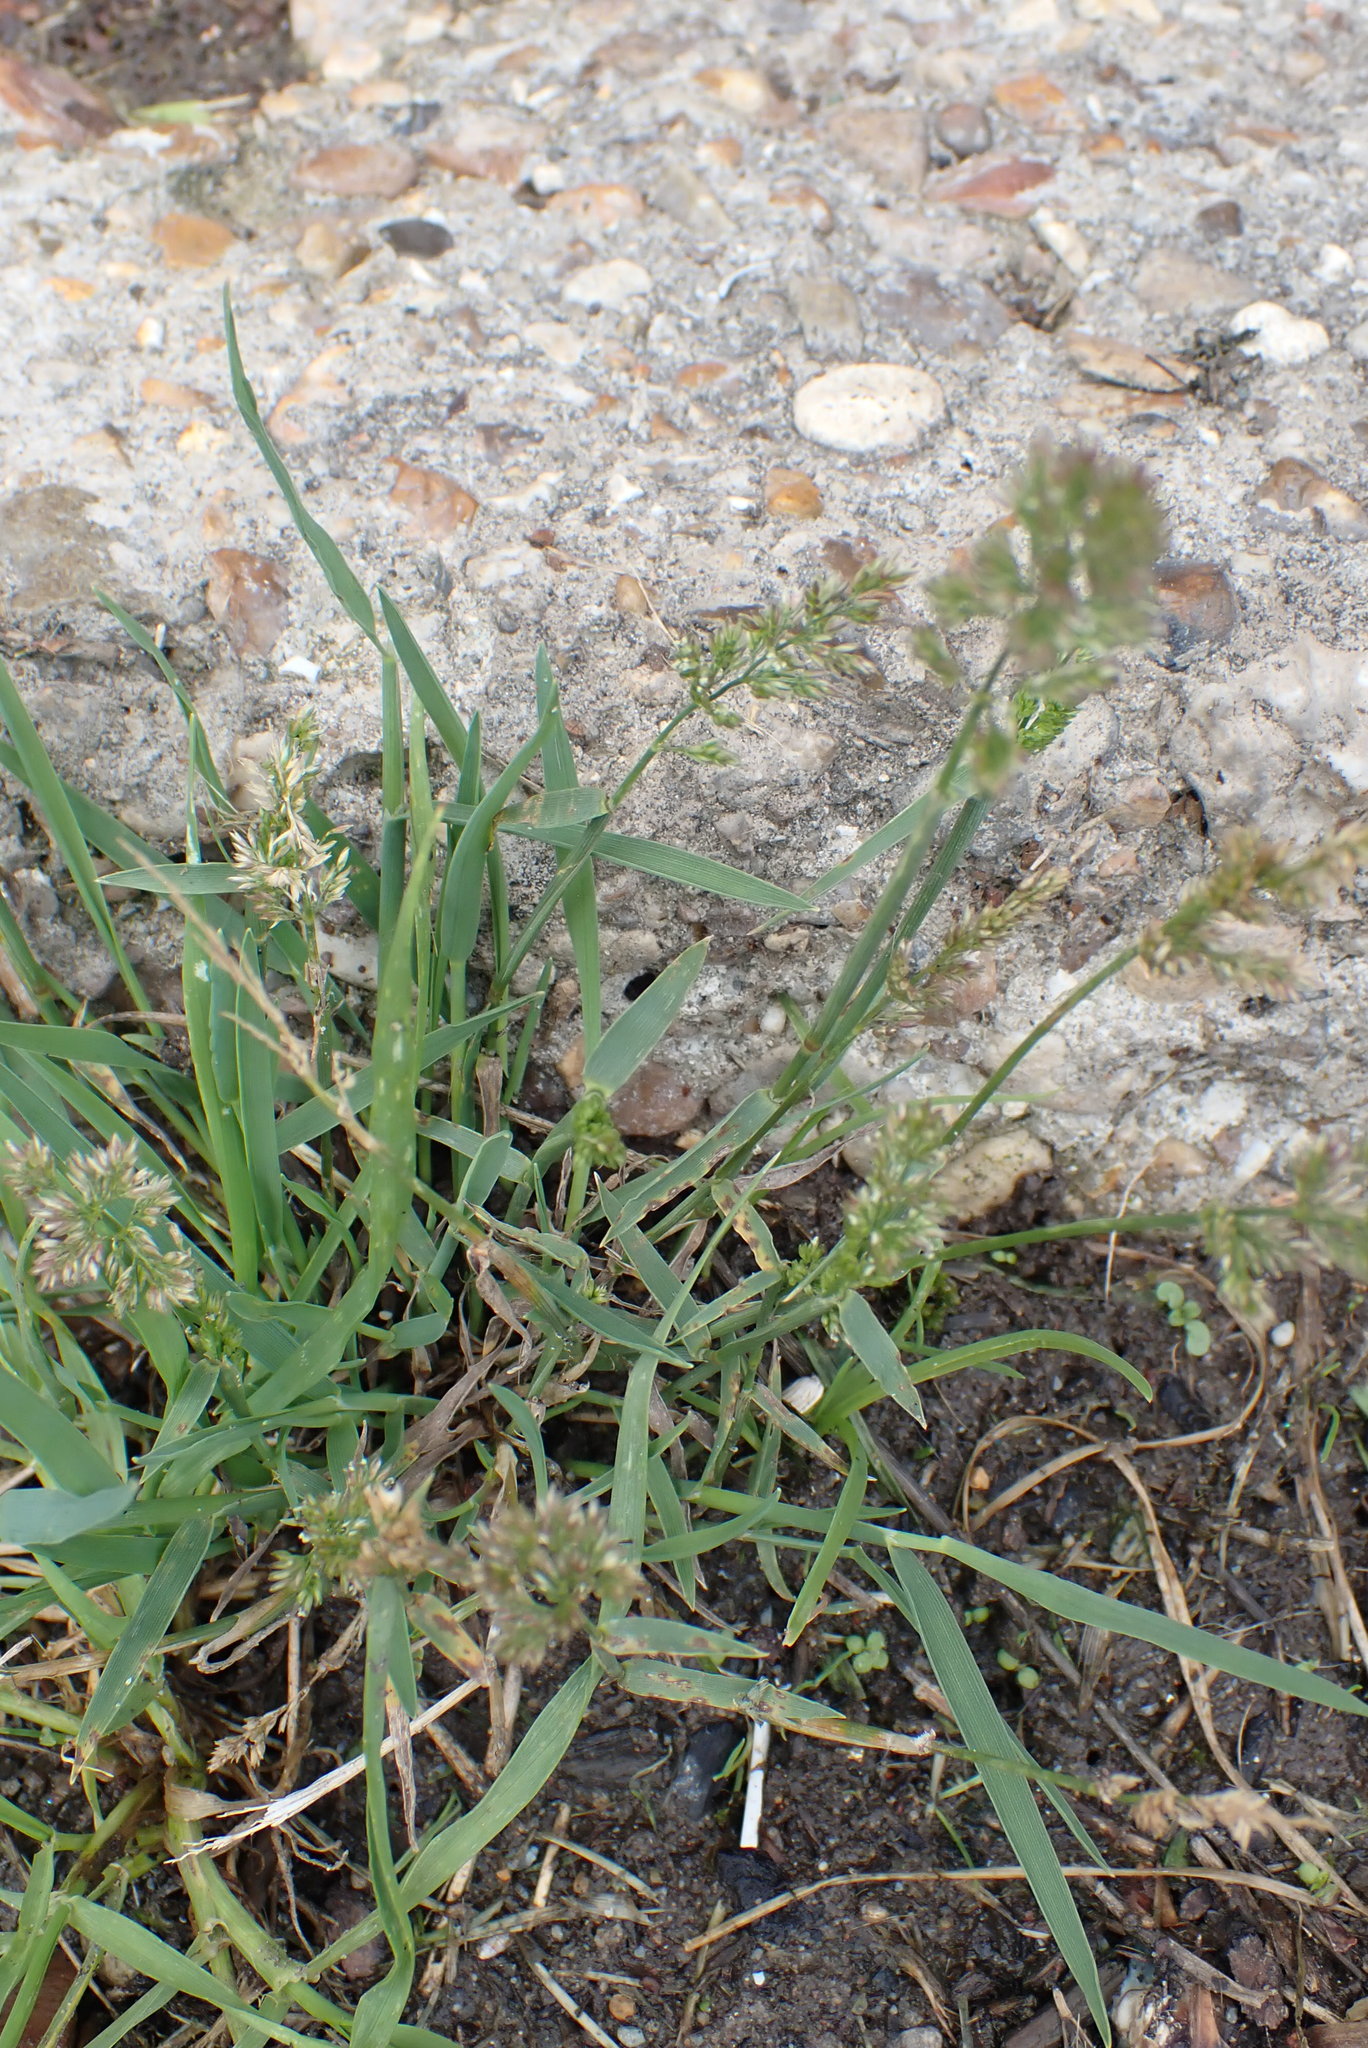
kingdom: Plantae
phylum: Tracheophyta
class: Liliopsida
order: Poales
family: Poaceae
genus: Polypogon
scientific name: Polypogon viridis
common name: Water bent
